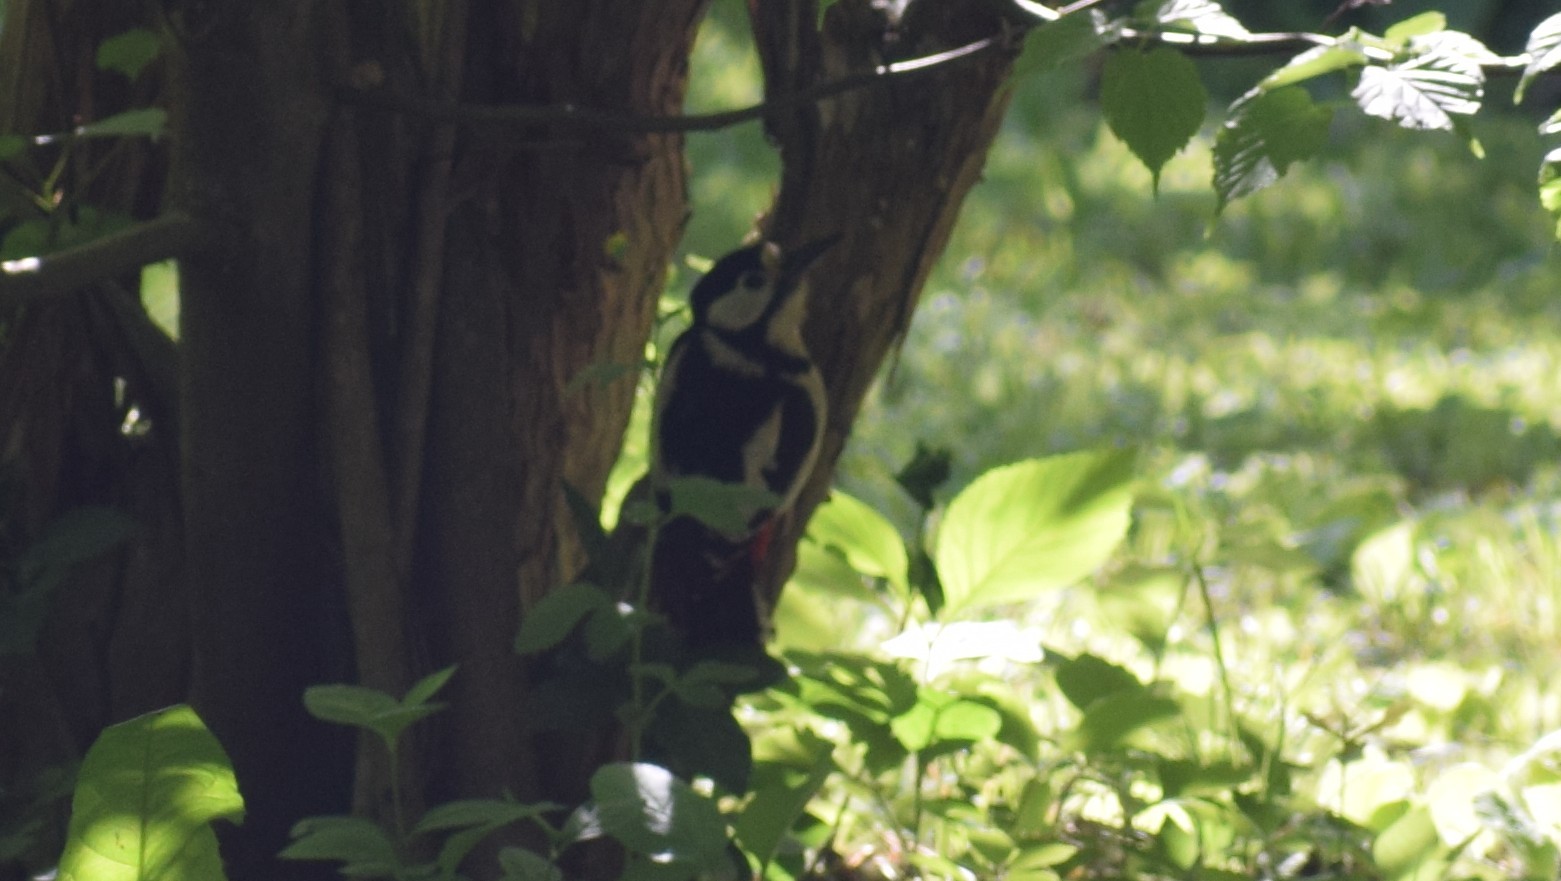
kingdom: Animalia
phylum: Chordata
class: Aves
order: Piciformes
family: Picidae
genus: Dendrocopos
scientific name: Dendrocopos major
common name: Great spotted woodpecker
